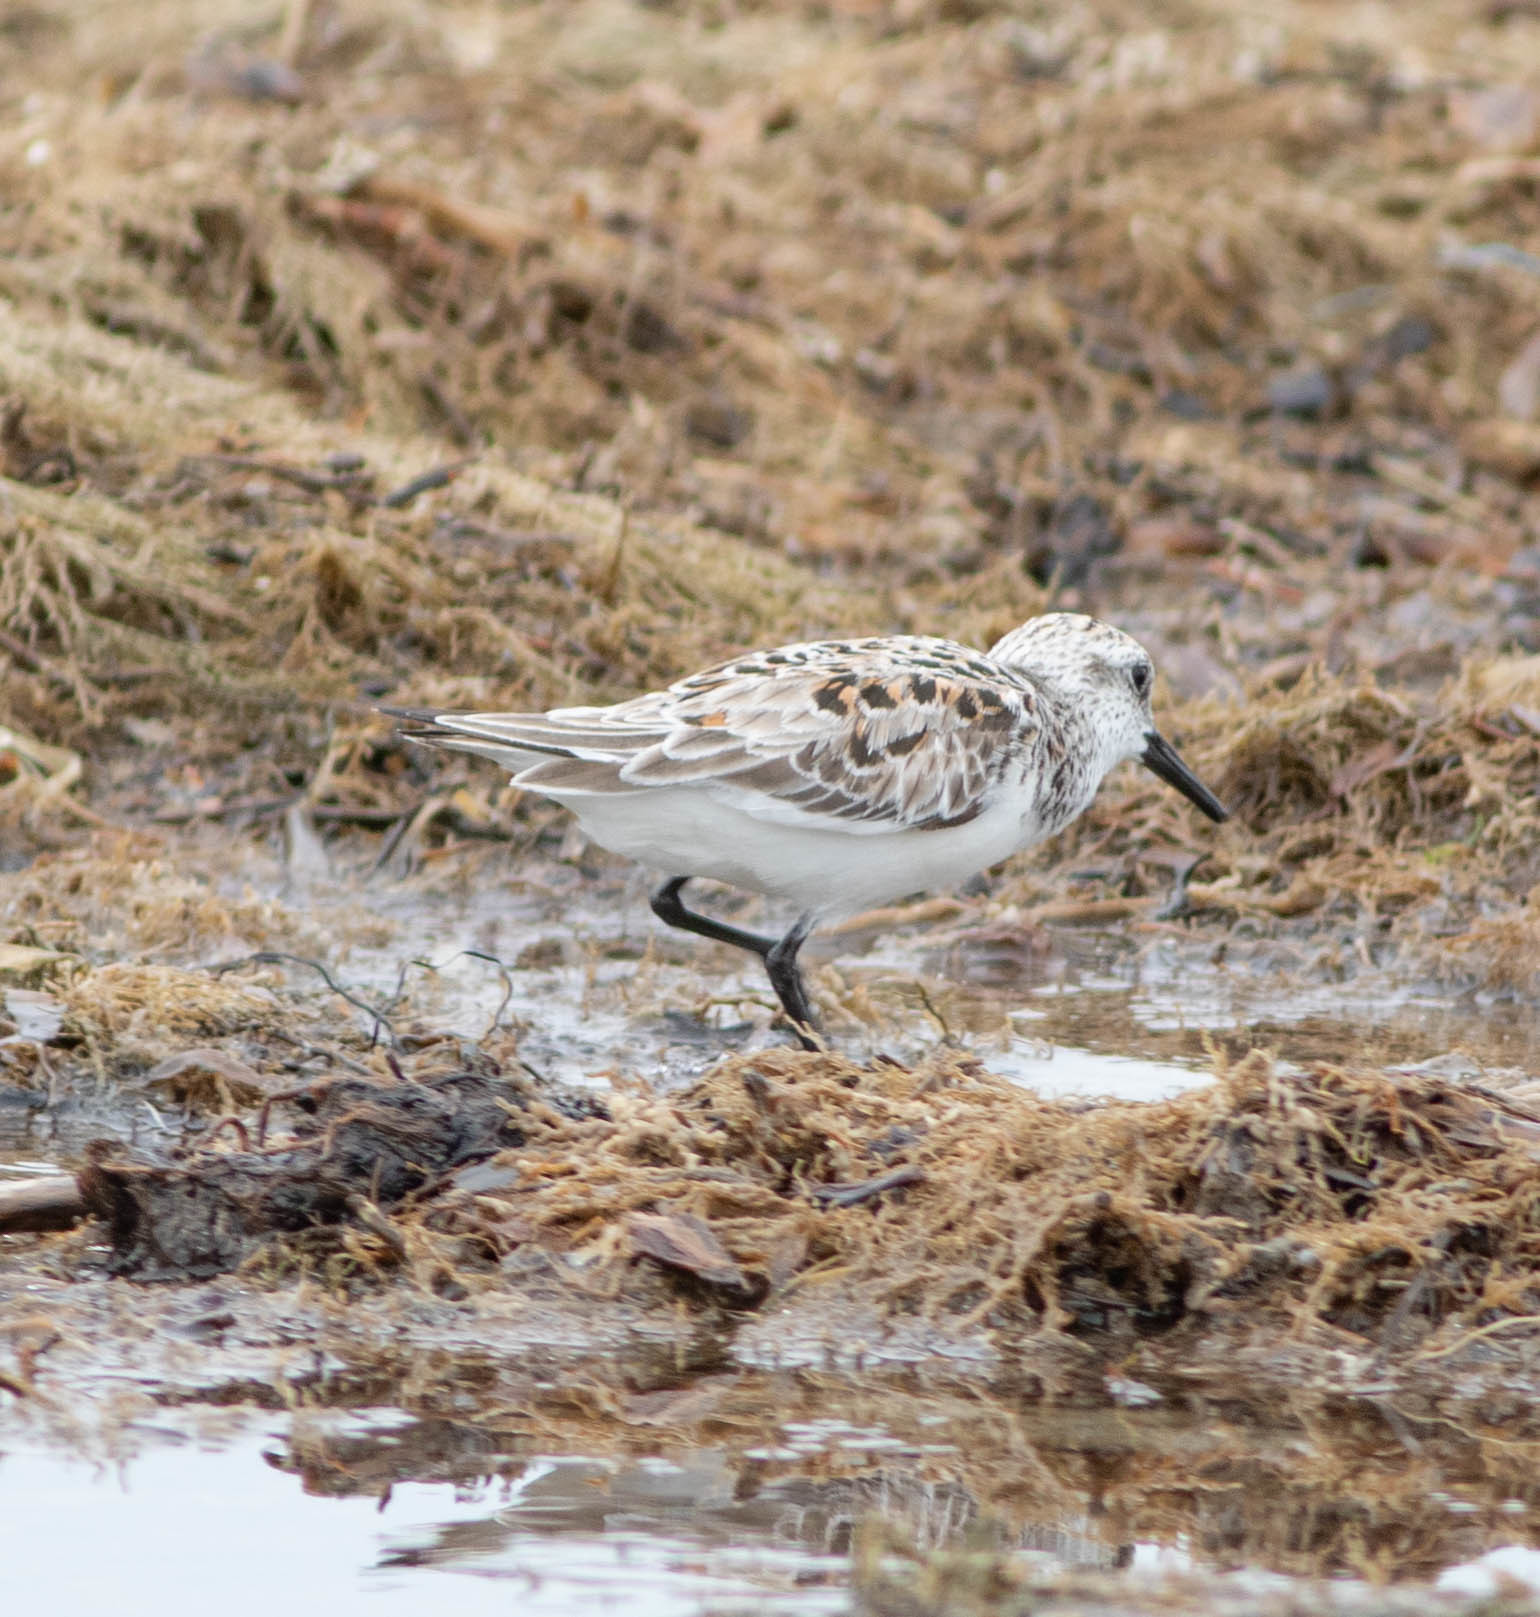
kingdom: Animalia
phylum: Chordata
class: Aves
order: Charadriiformes
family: Scolopacidae
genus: Calidris
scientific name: Calidris alba
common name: Sanderling
